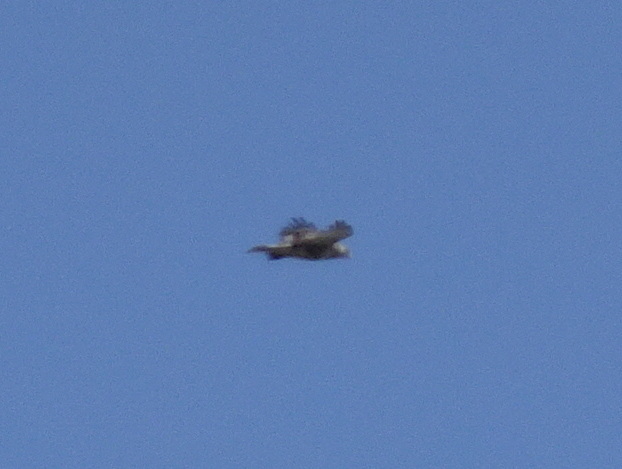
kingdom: Animalia
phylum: Chordata
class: Aves
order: Accipitriformes
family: Accipitridae
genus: Buteo
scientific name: Buteo jamaicensis
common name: Red-tailed hawk
